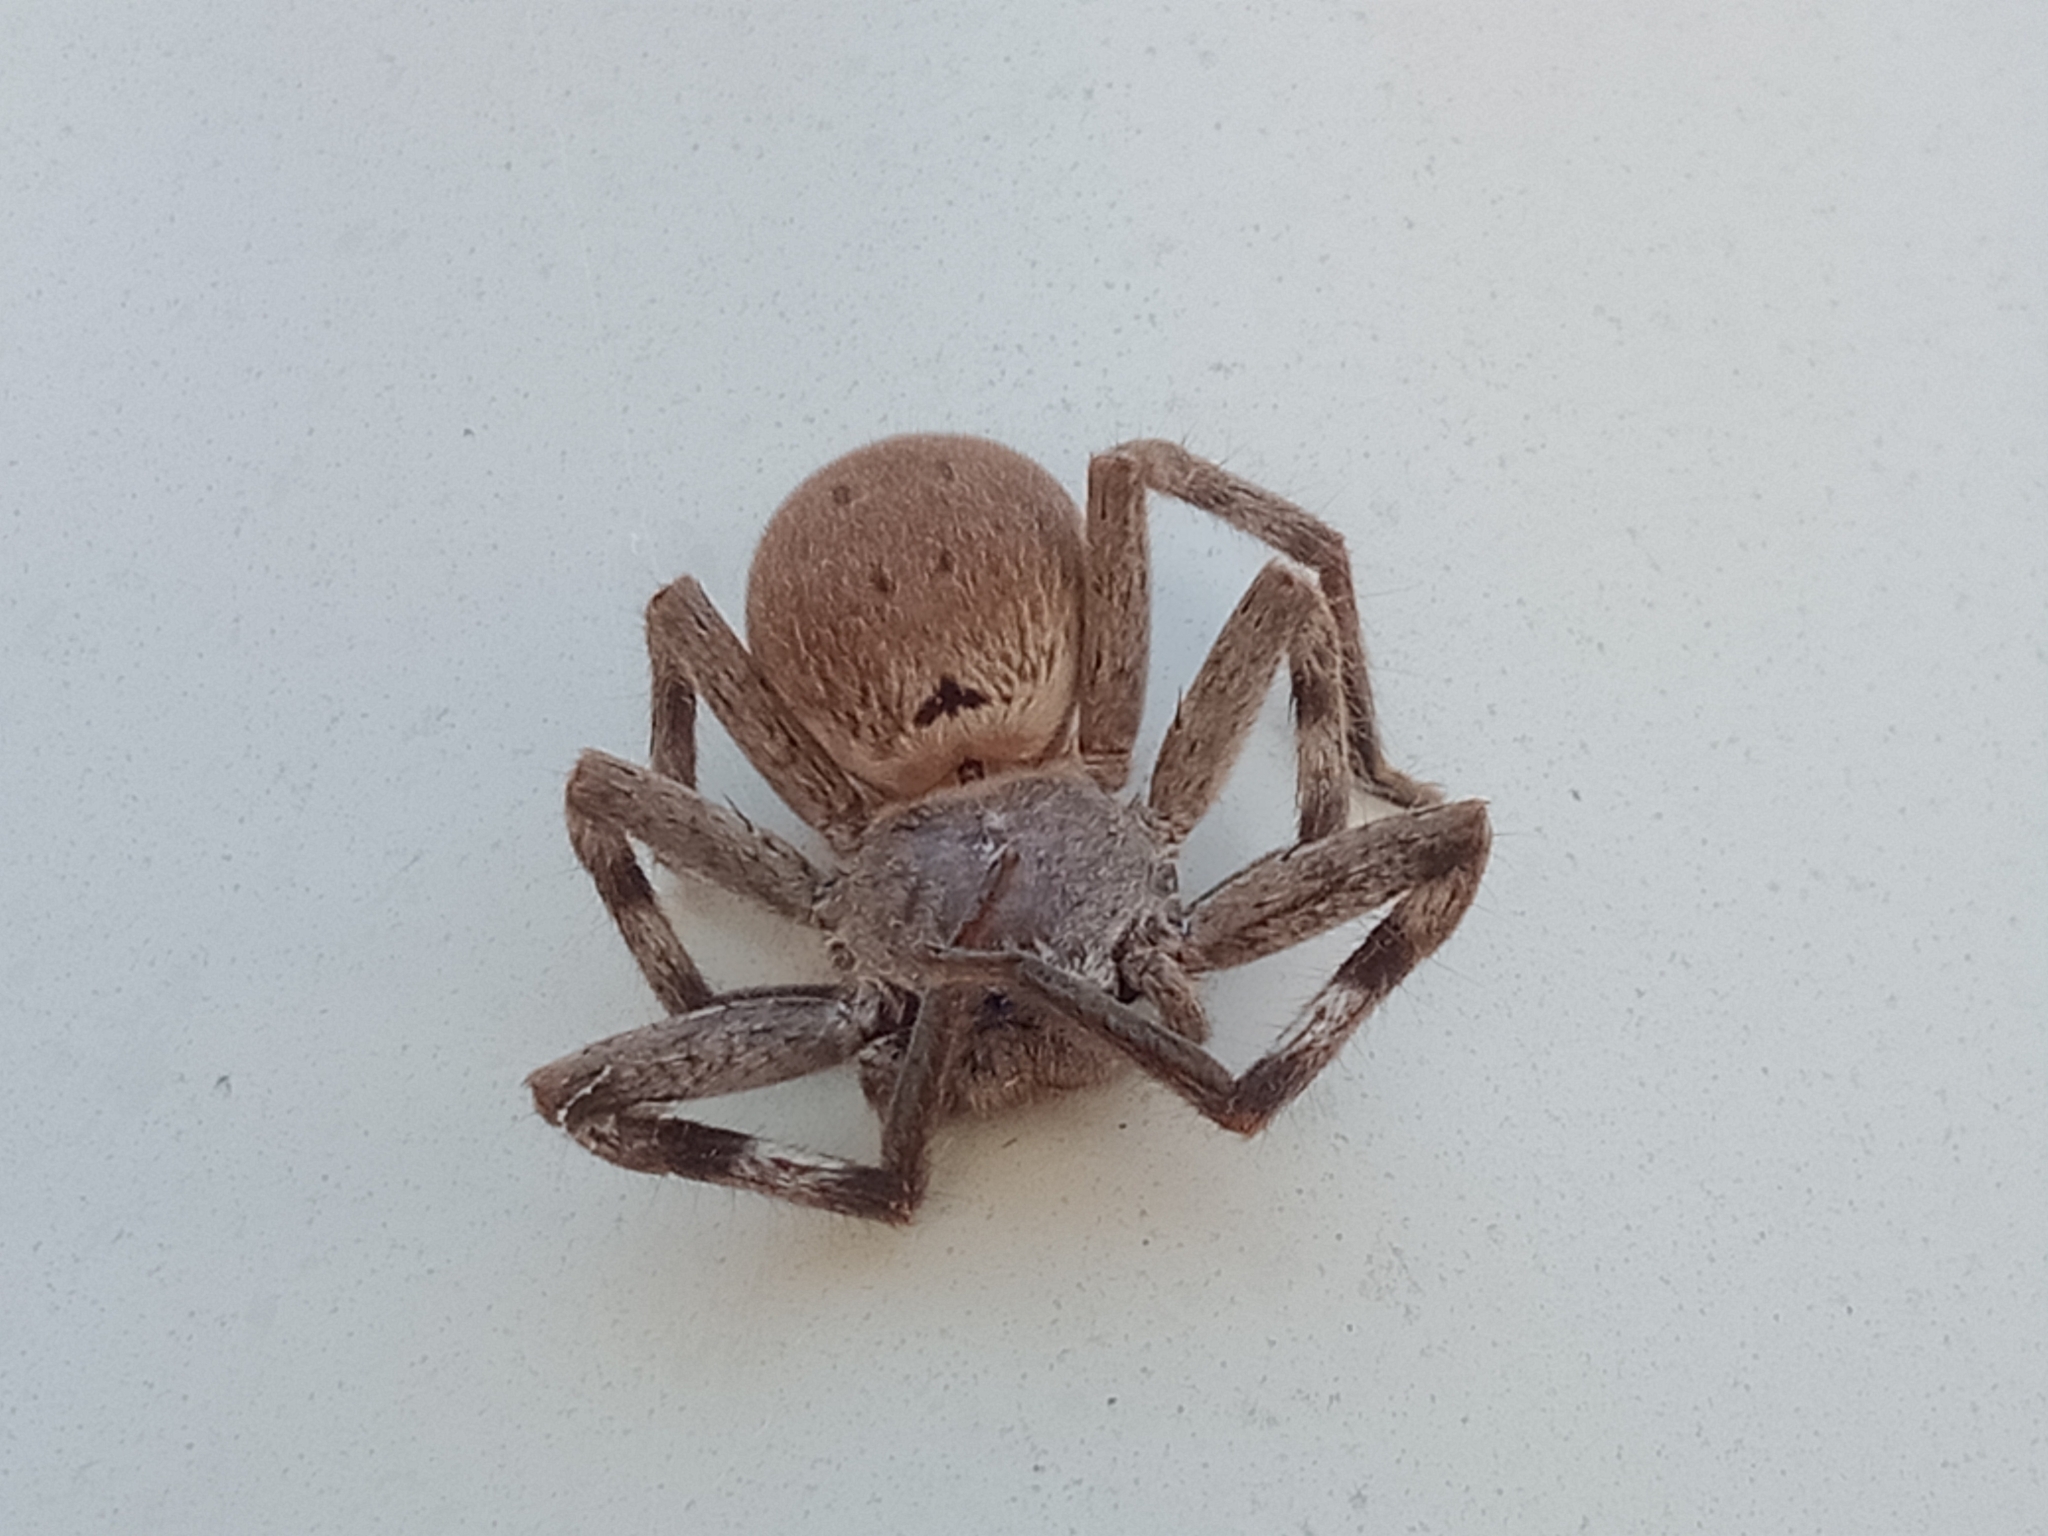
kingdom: Animalia
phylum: Arthropoda
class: Arachnida
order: Araneae
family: Sparassidae
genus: Isopedella
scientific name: Isopedella pessleri
